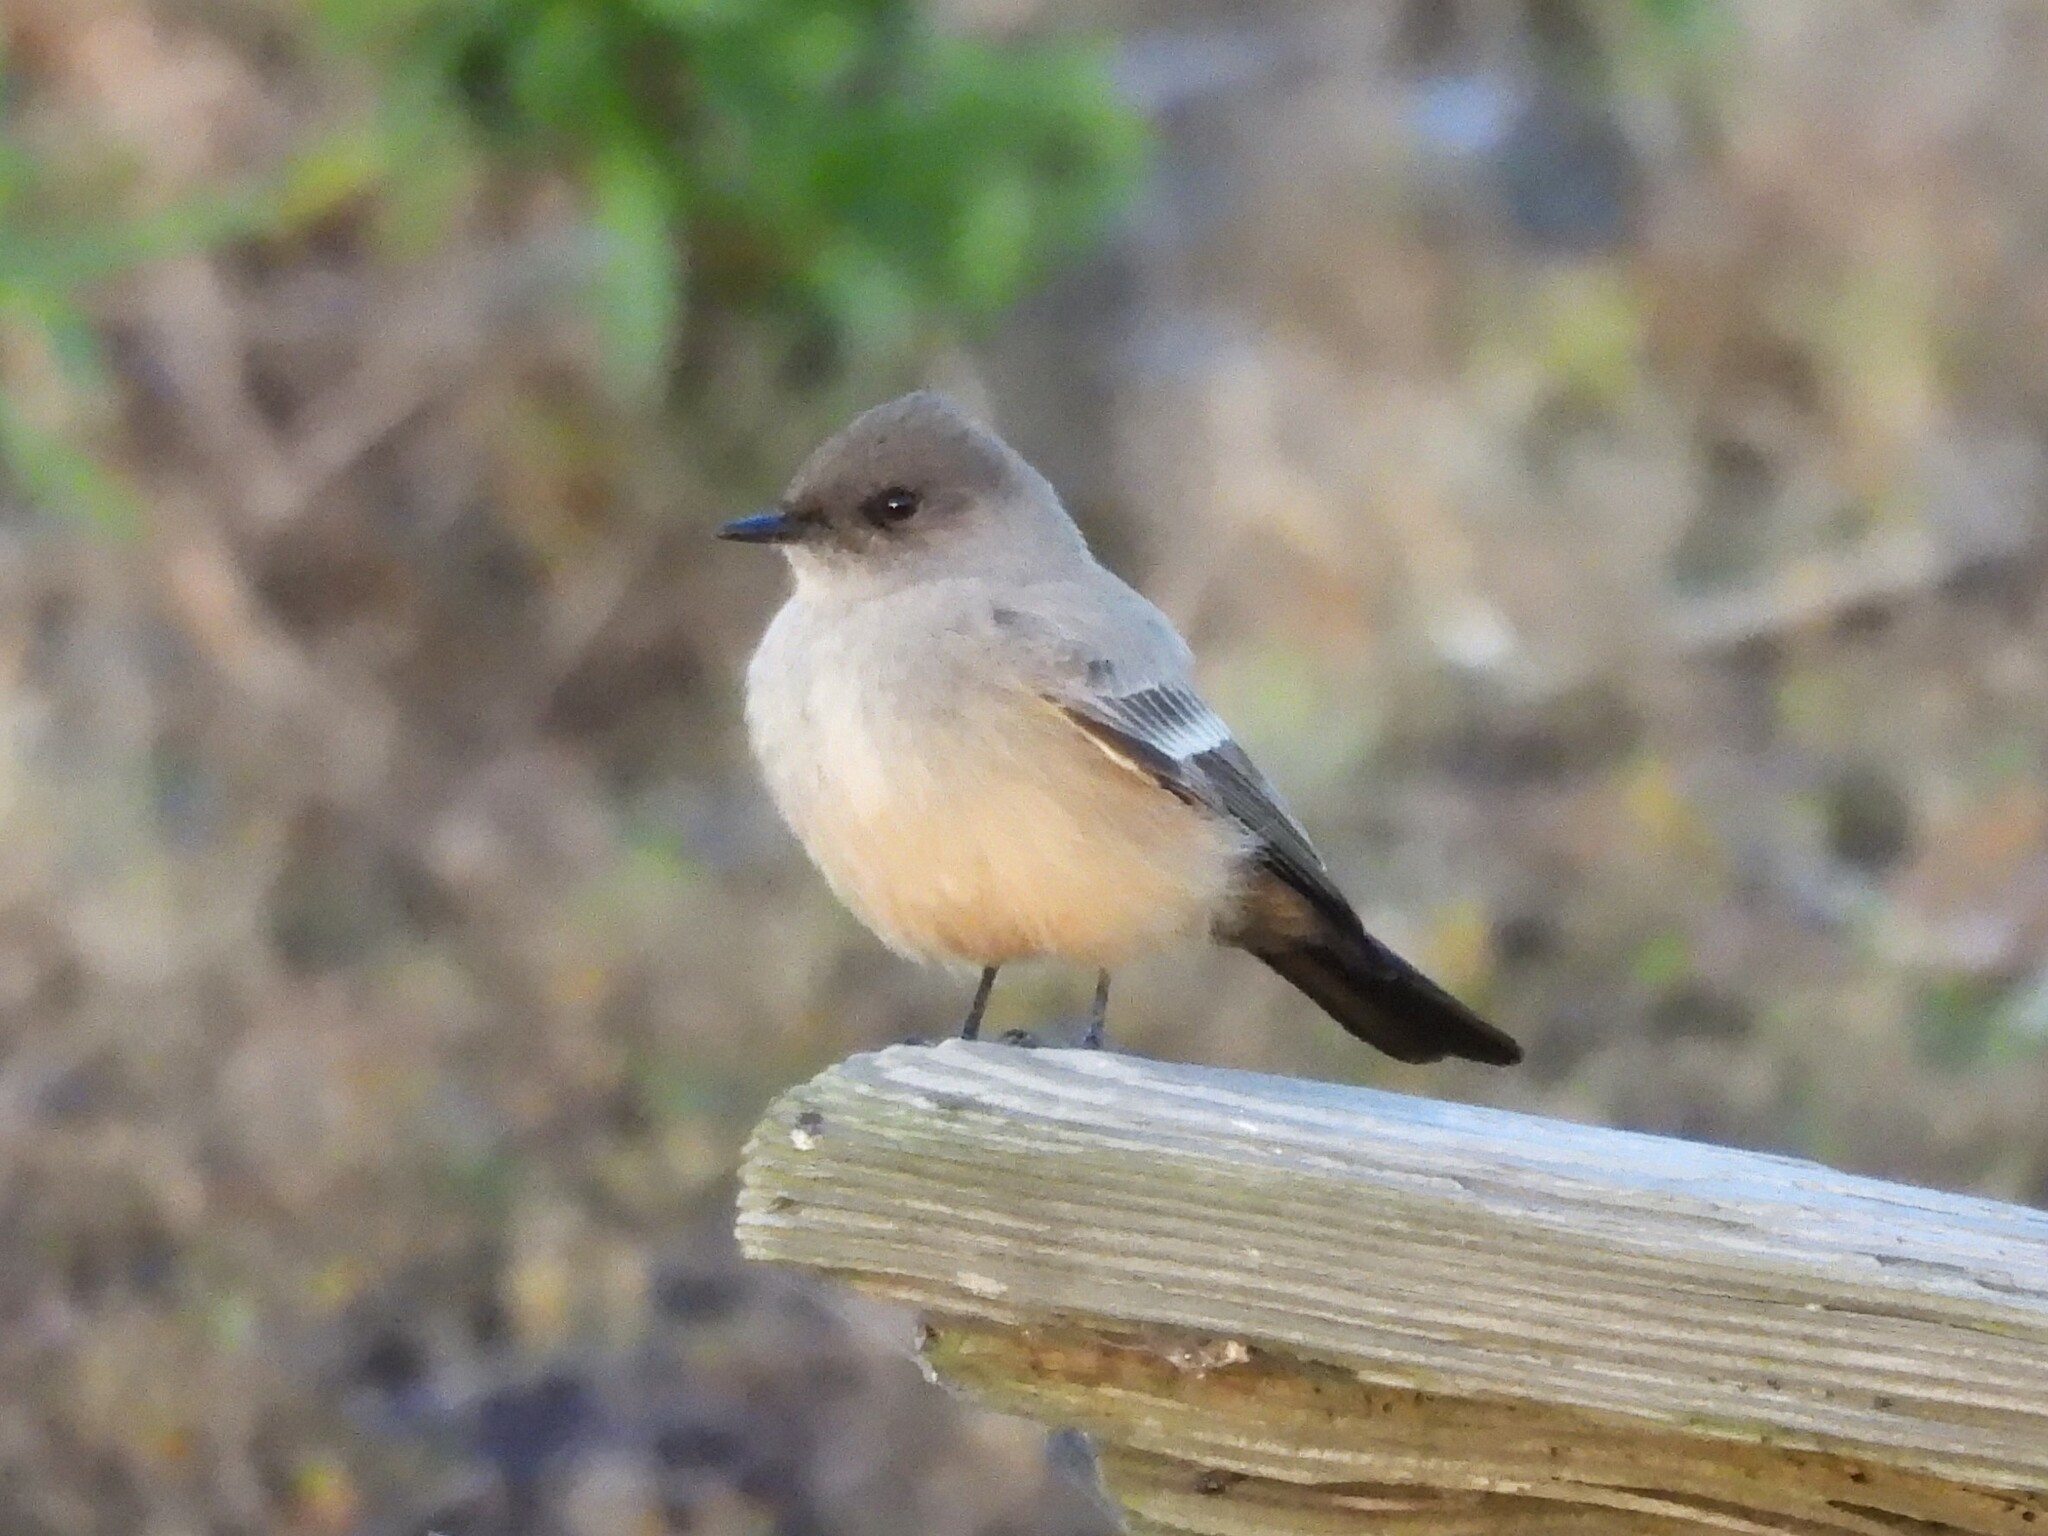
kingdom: Animalia
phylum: Chordata
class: Aves
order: Passeriformes
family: Tyrannidae
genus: Sayornis
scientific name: Sayornis saya
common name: Say's phoebe
